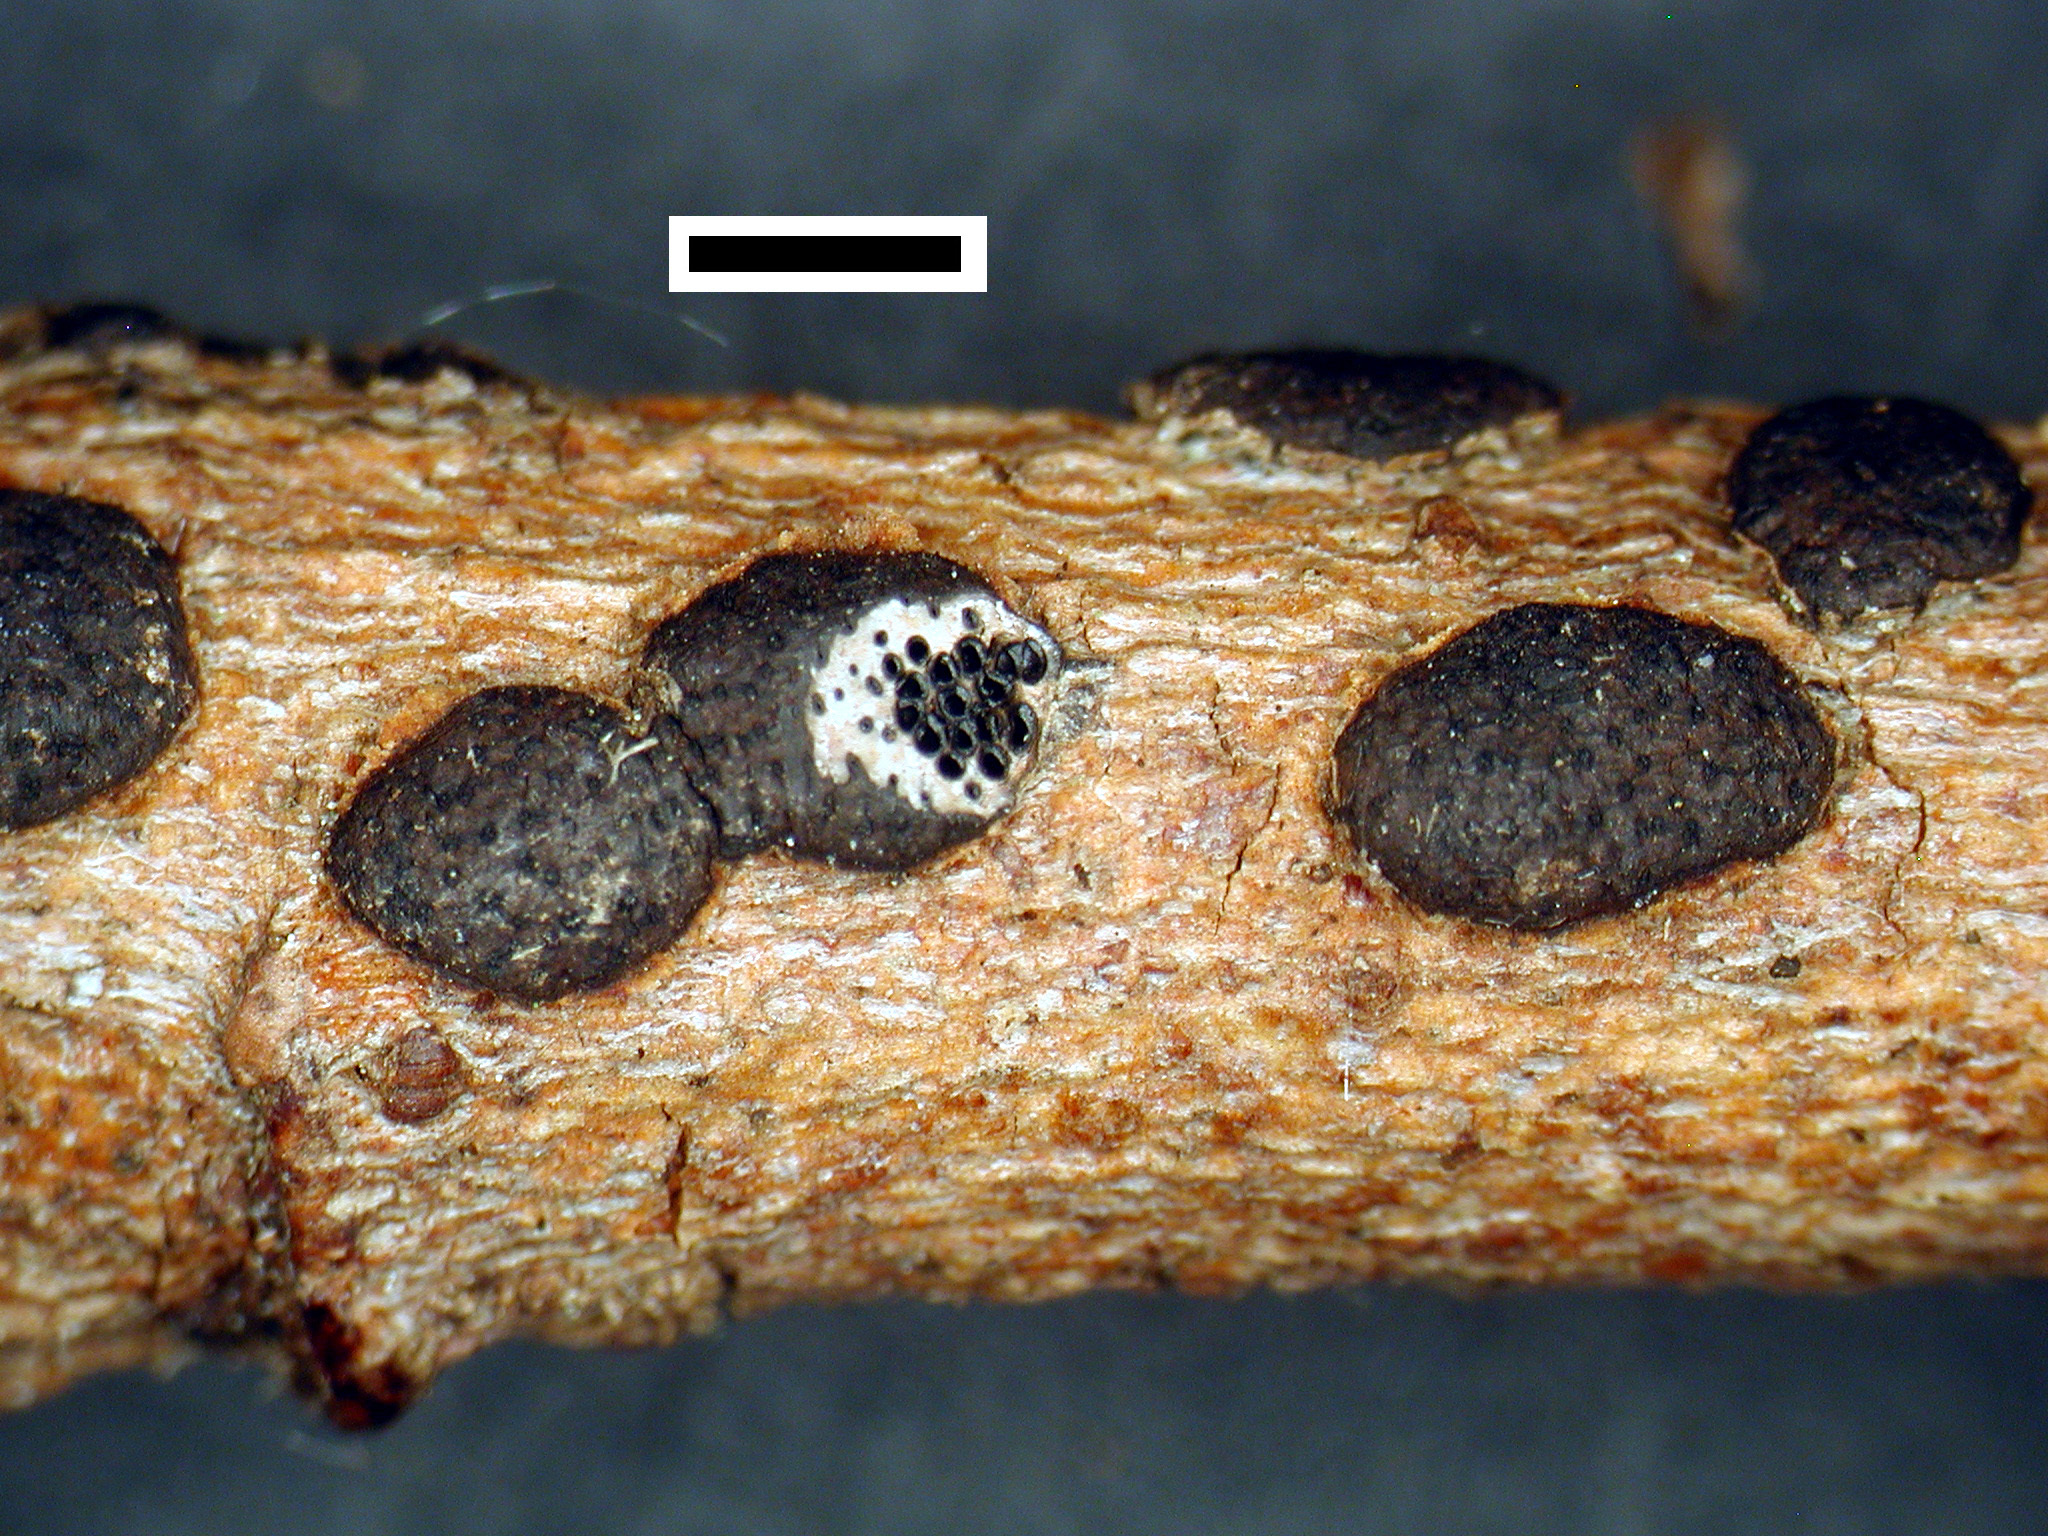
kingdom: Fungi
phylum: Ascomycota
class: Sordariomycetes
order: Xylariales
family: Diatrypaceae
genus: Diatrype
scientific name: Diatrype bullata
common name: Willow barkspot
